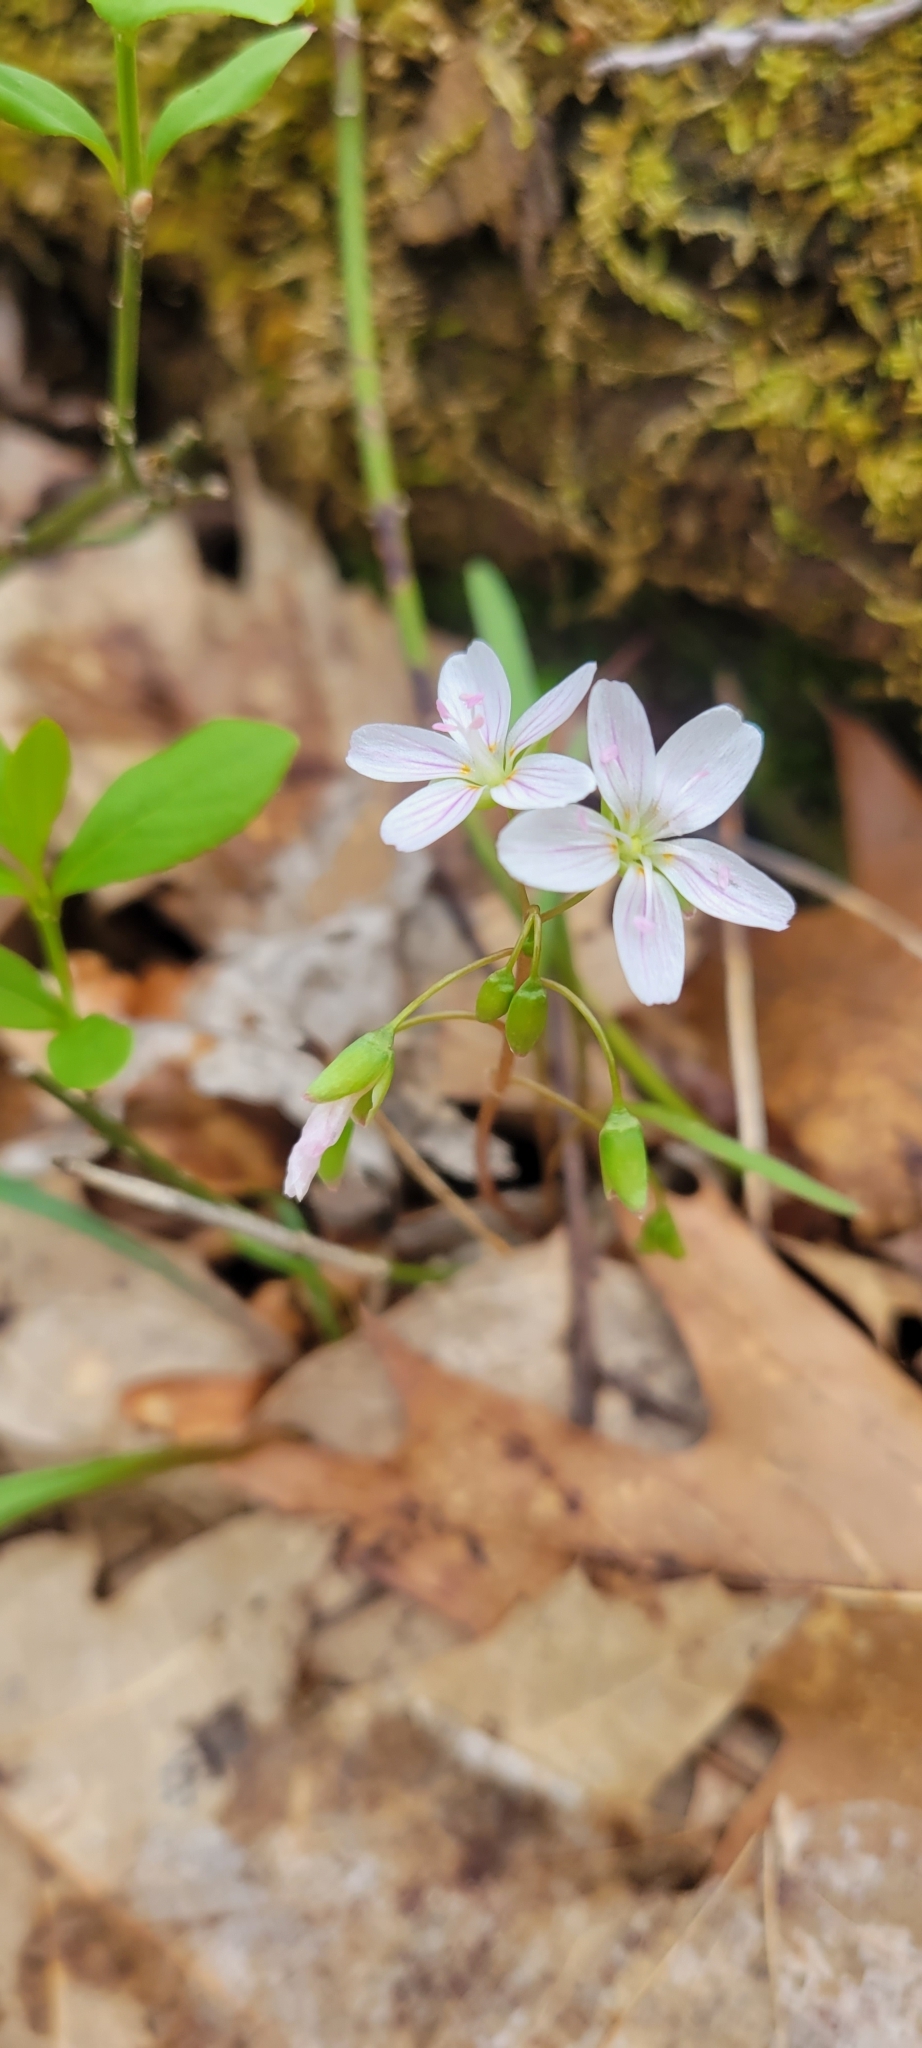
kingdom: Plantae
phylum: Tracheophyta
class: Magnoliopsida
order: Caryophyllales
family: Montiaceae
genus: Claytonia
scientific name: Claytonia virginica
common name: Virginia springbeauty
